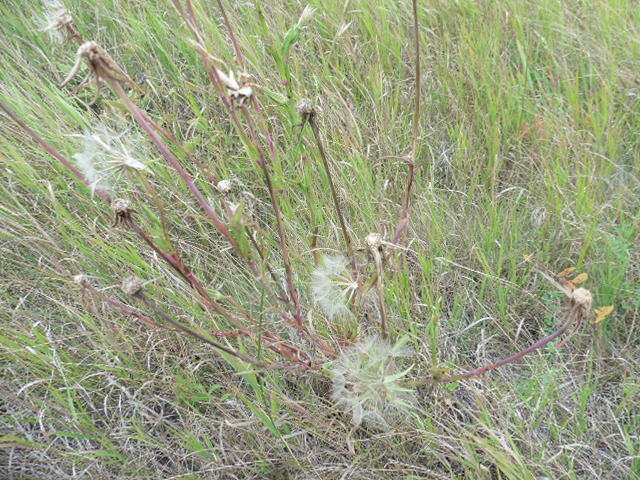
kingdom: Plantae
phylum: Tracheophyta
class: Magnoliopsida
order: Asterales
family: Asteraceae
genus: Tragopogon
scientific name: Tragopogon dubius
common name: Yellow salsify
